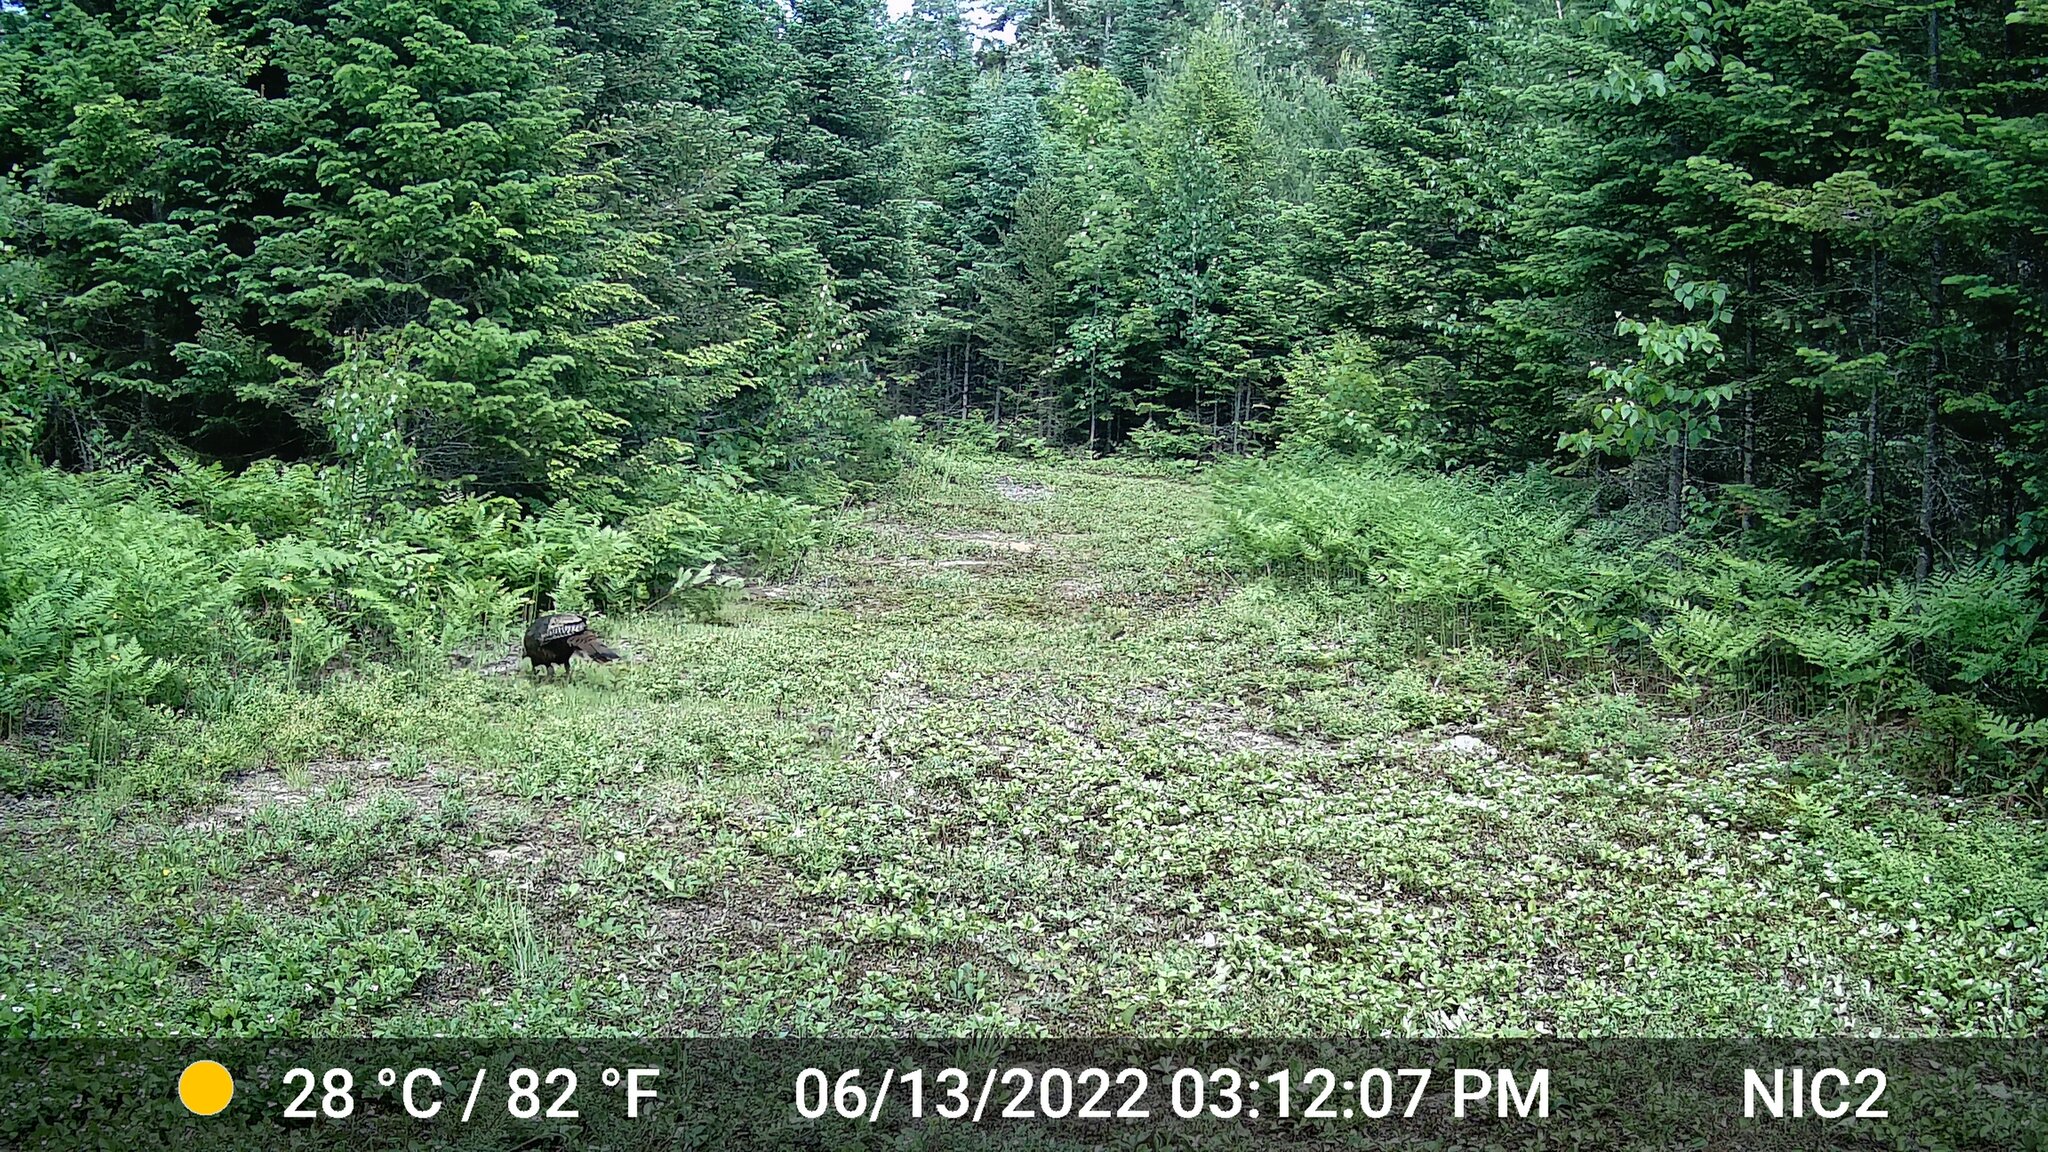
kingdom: Animalia
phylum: Chordata
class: Aves
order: Galliformes
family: Phasianidae
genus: Meleagris
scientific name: Meleagris gallopavo
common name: Wild turkey
